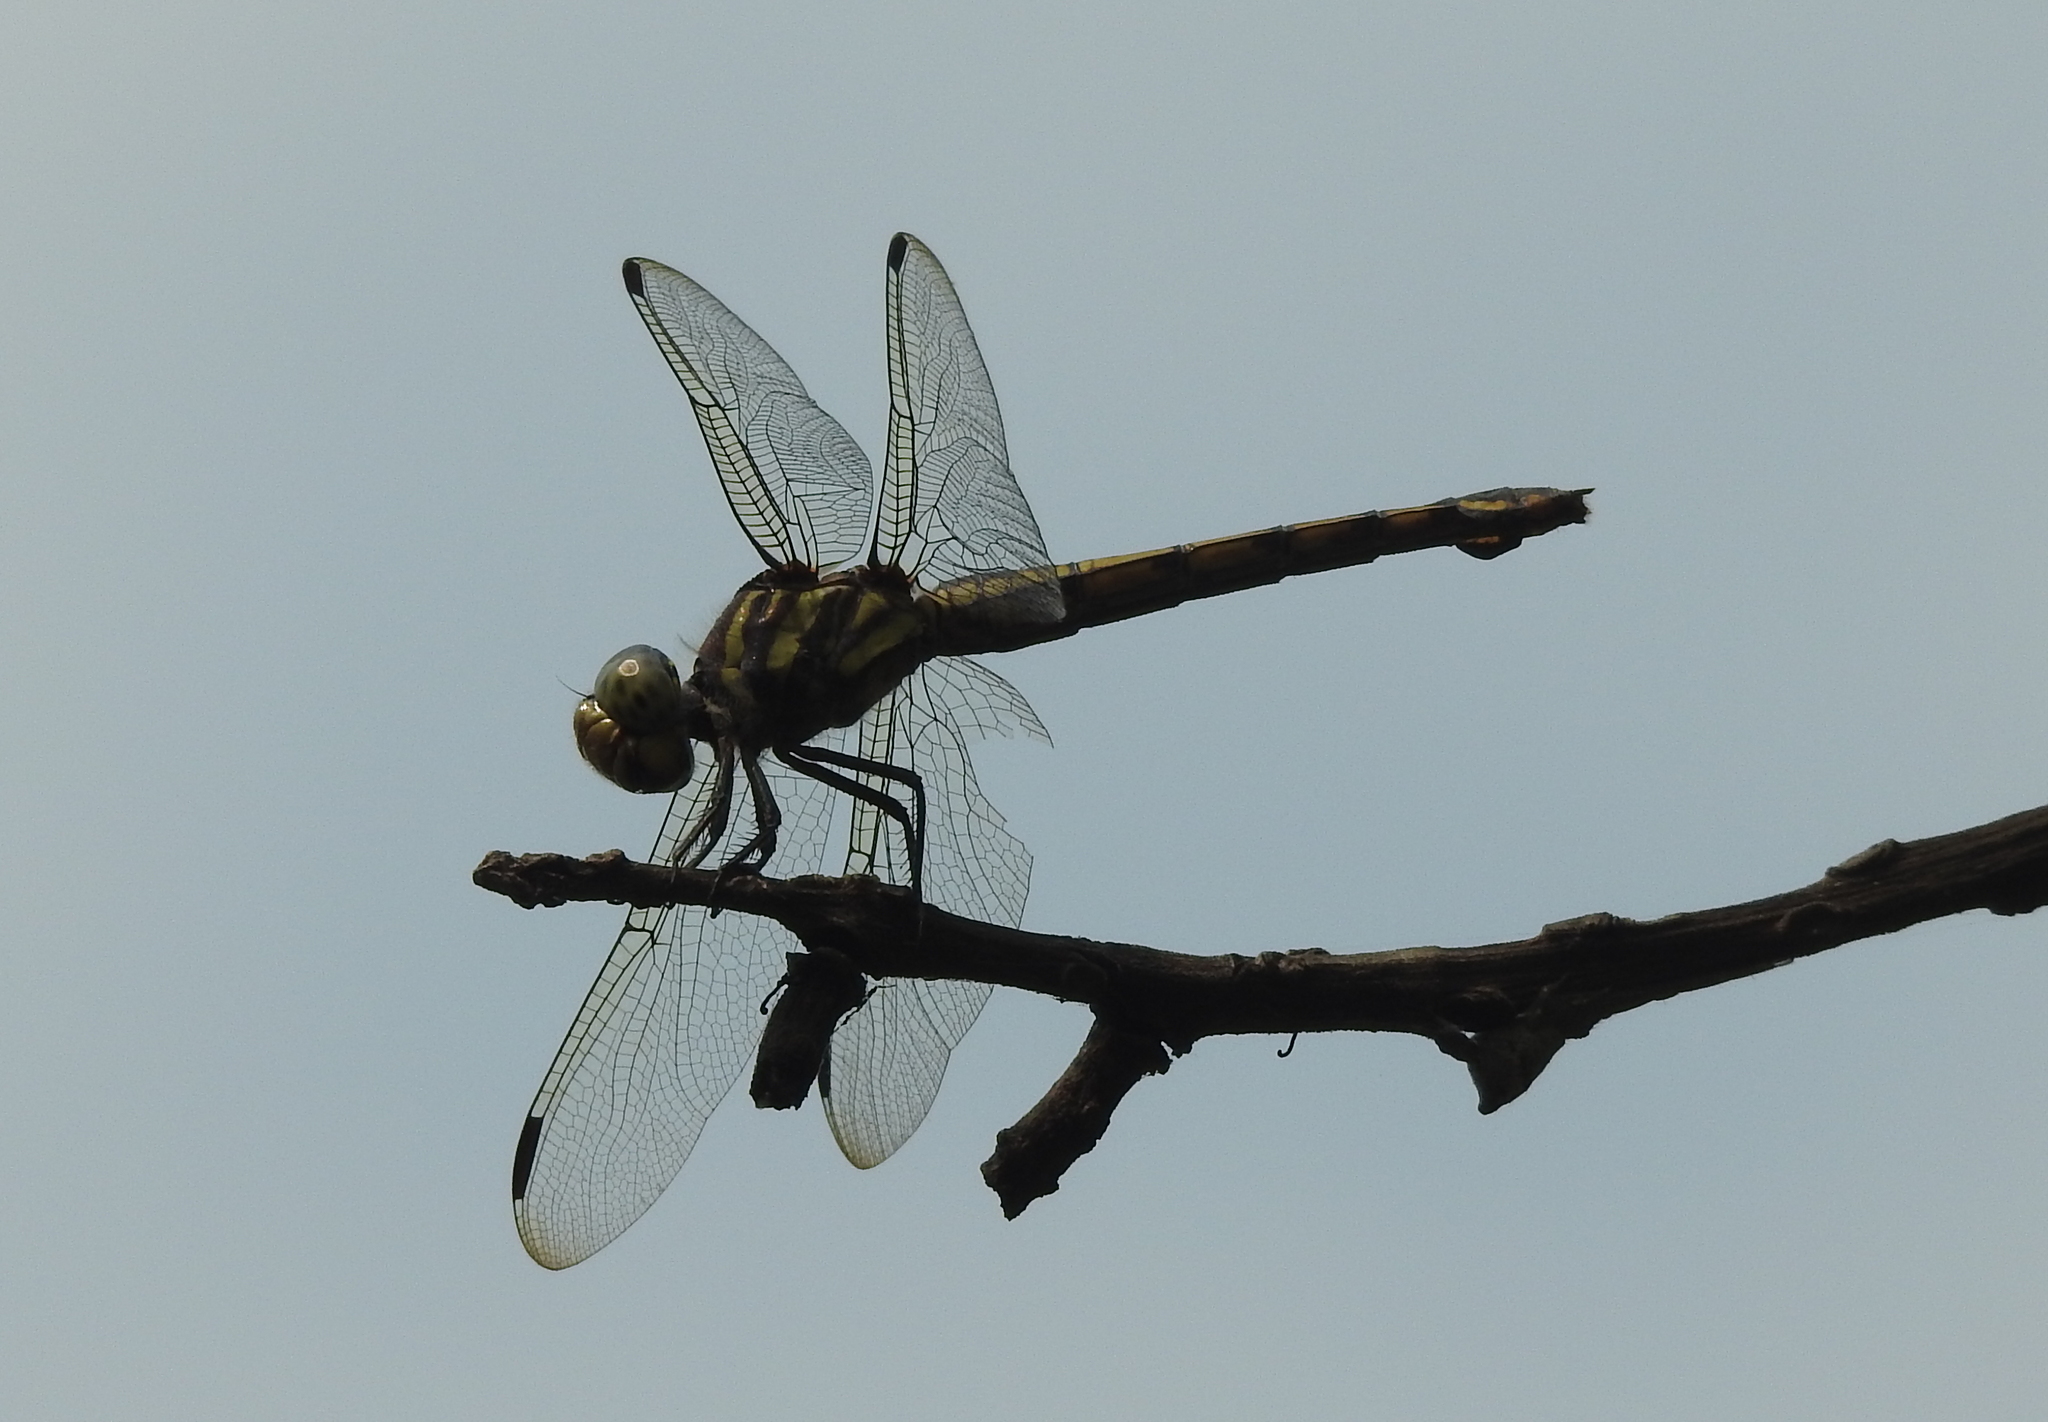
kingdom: Animalia
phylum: Arthropoda
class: Insecta
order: Odonata
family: Libellulidae
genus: Potamarcha
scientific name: Potamarcha congener
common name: Blue chaser
